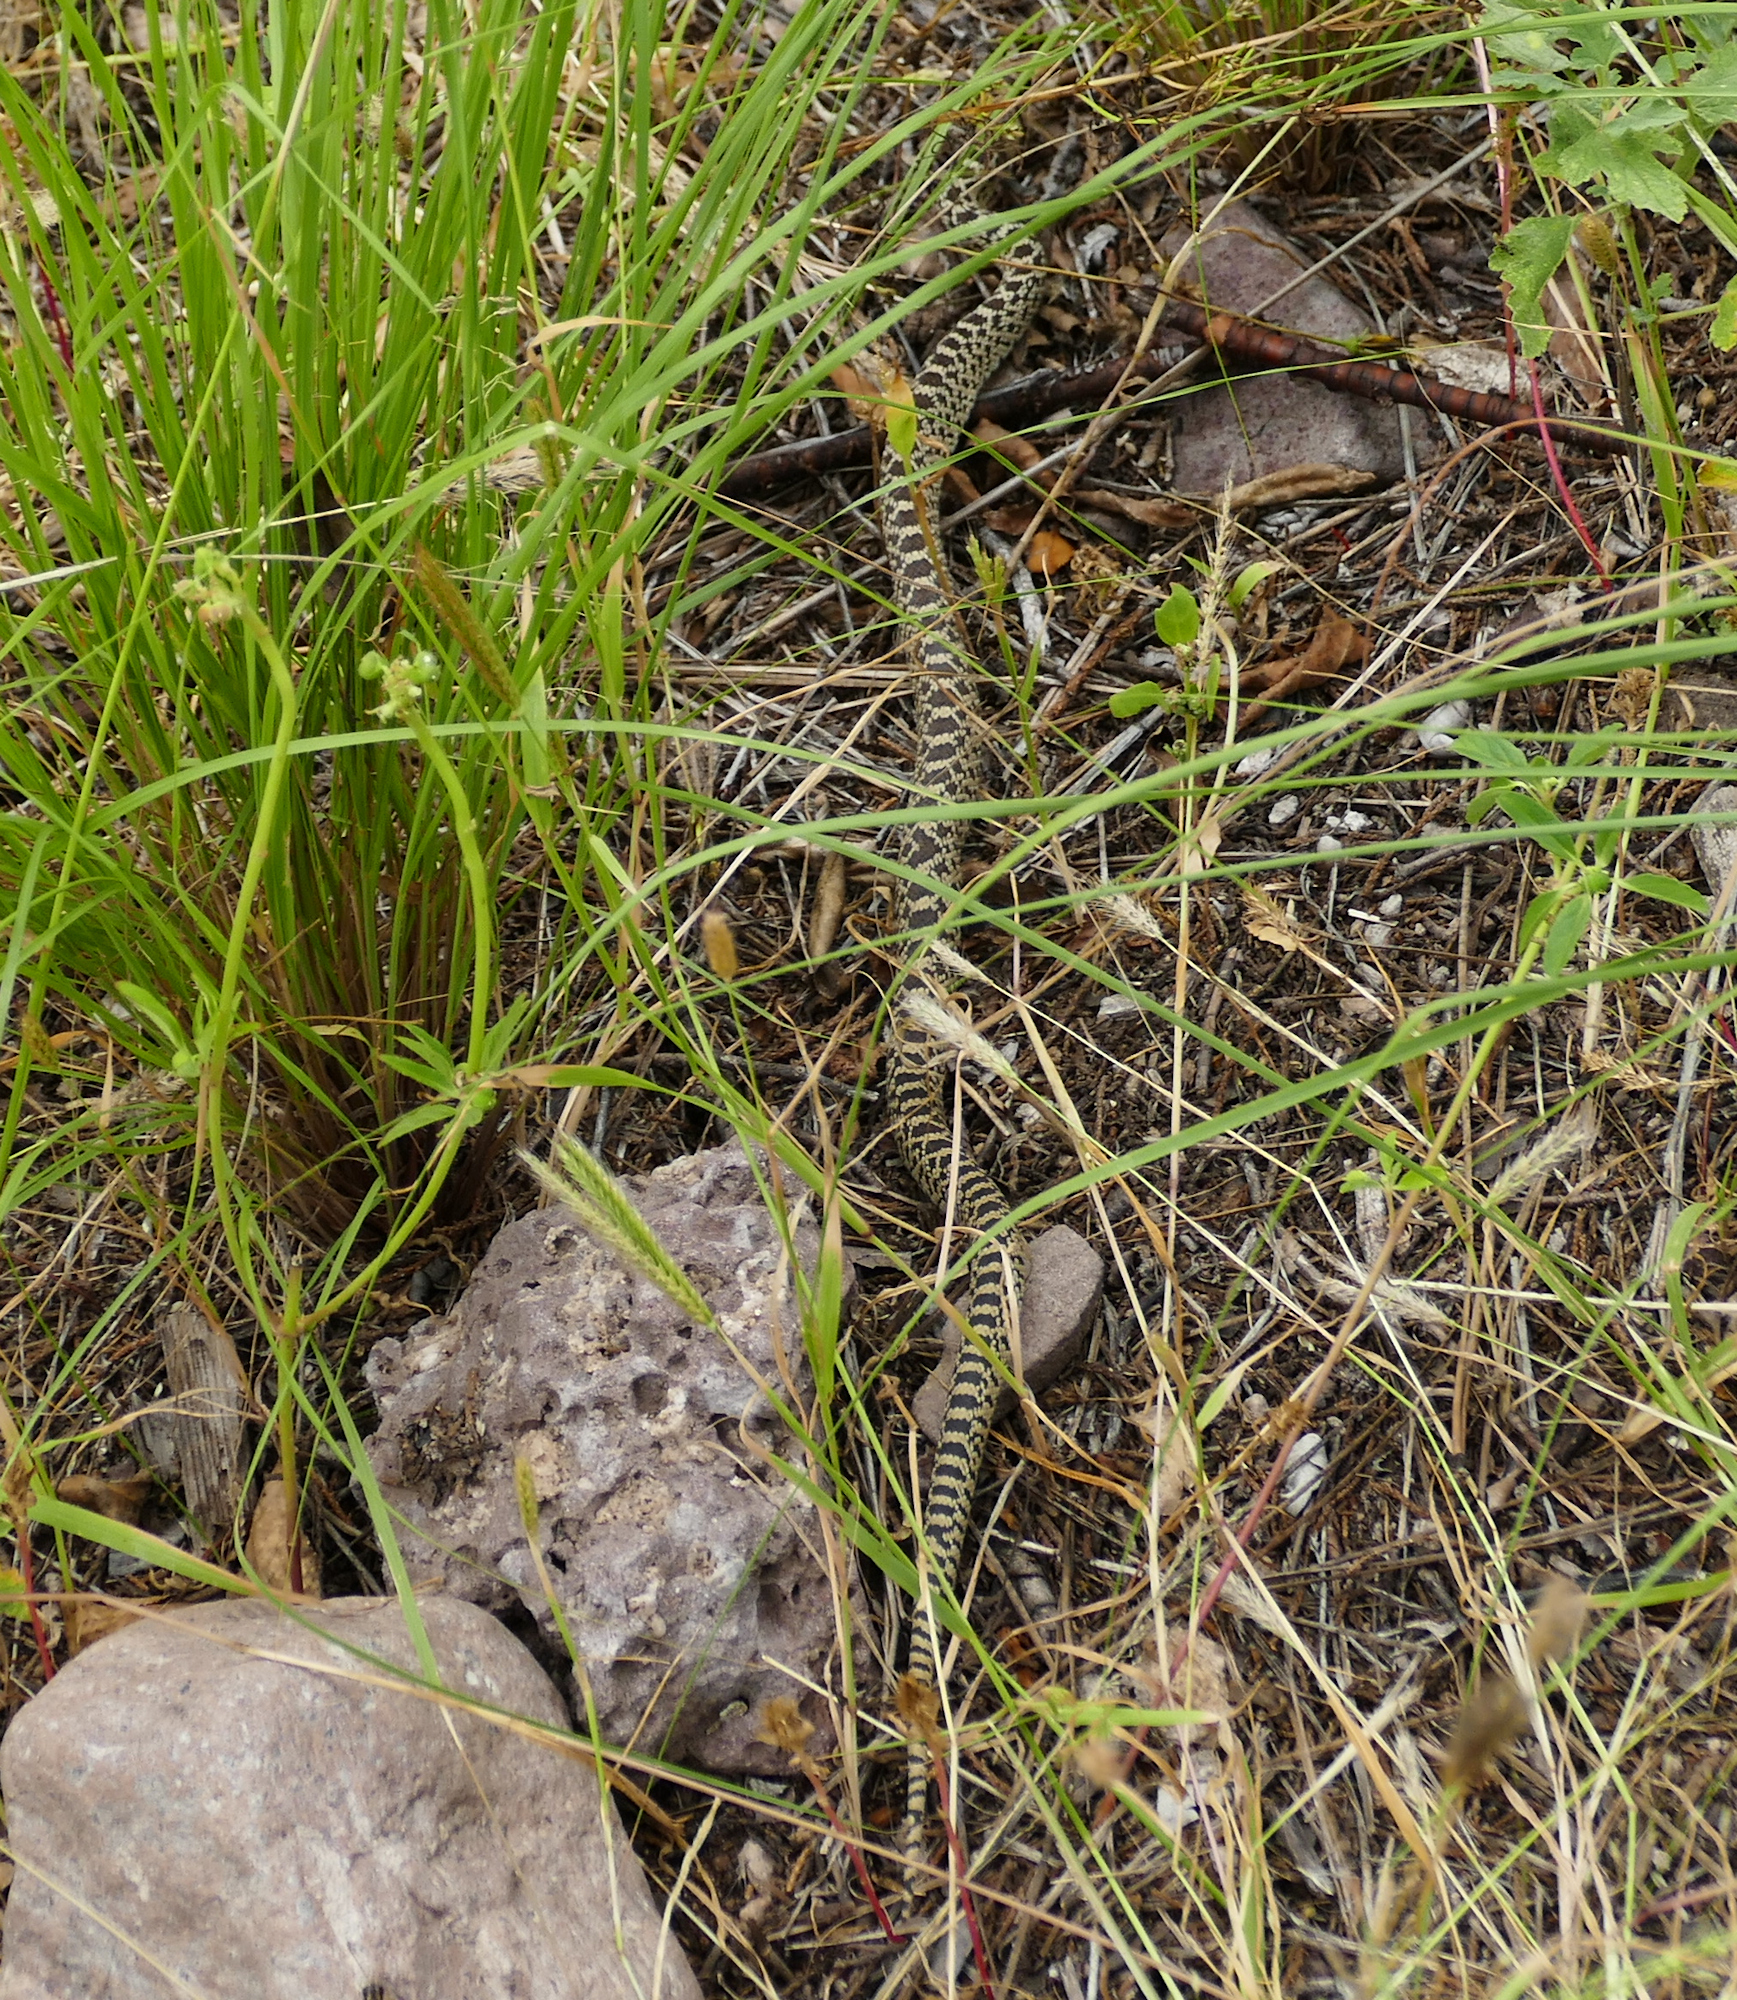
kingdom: Animalia
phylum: Chordata
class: Squamata
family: Colubridae
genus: Pituophis
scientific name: Pituophis catenifer
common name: Gopher snake
